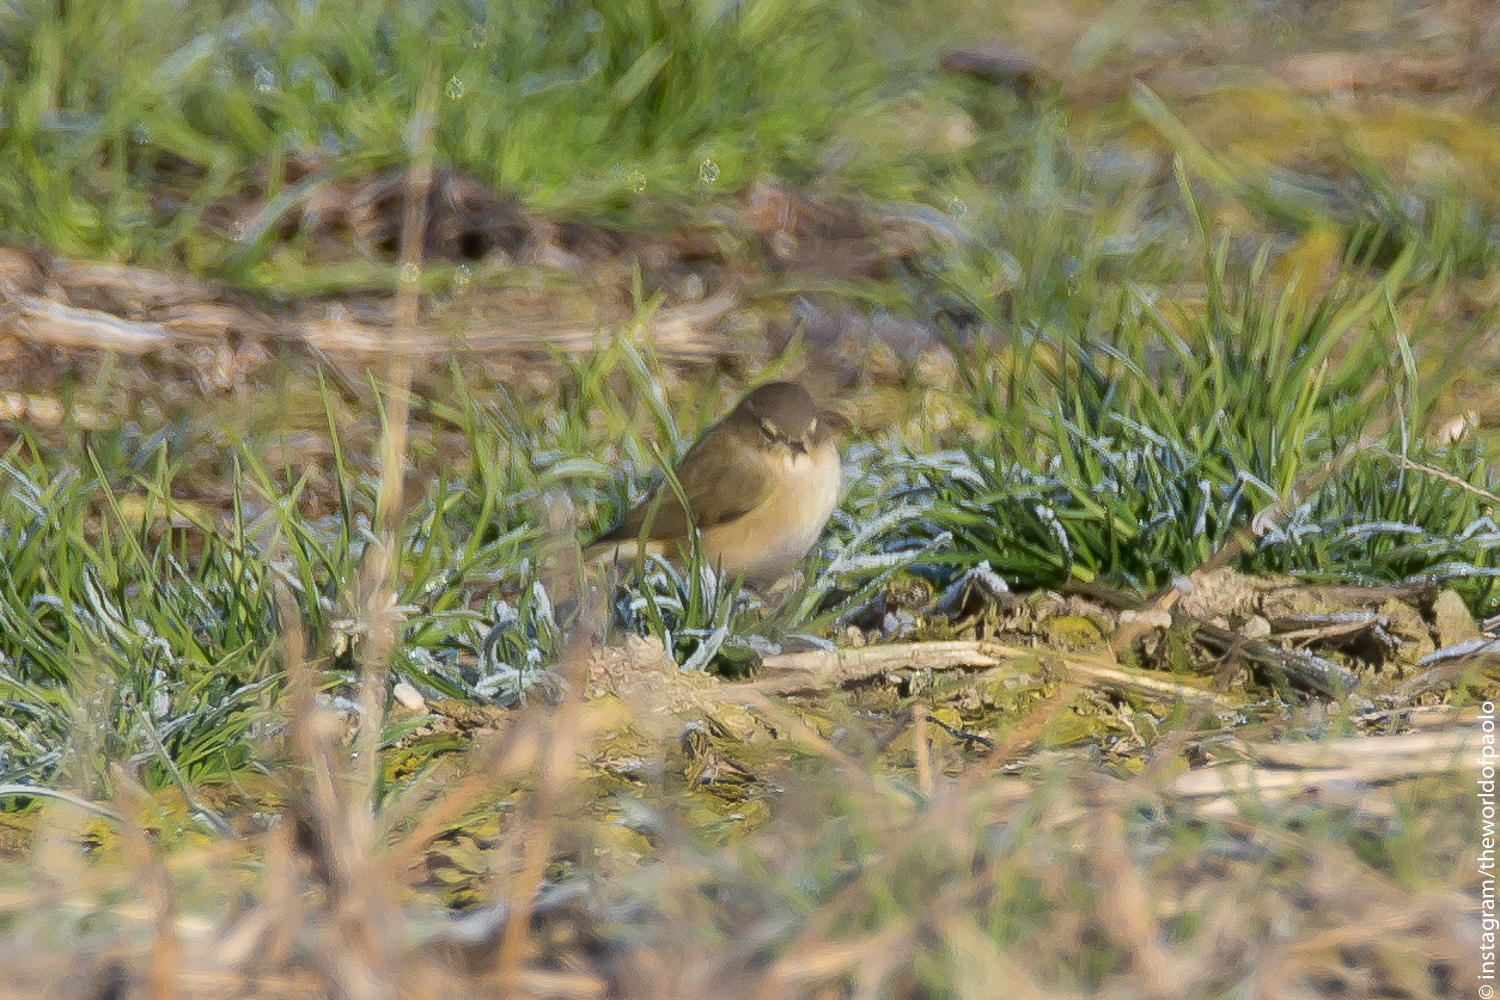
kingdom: Animalia
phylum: Chordata
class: Aves
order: Passeriformes
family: Phylloscopidae
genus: Phylloscopus
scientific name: Phylloscopus collybita
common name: Common chiffchaff
